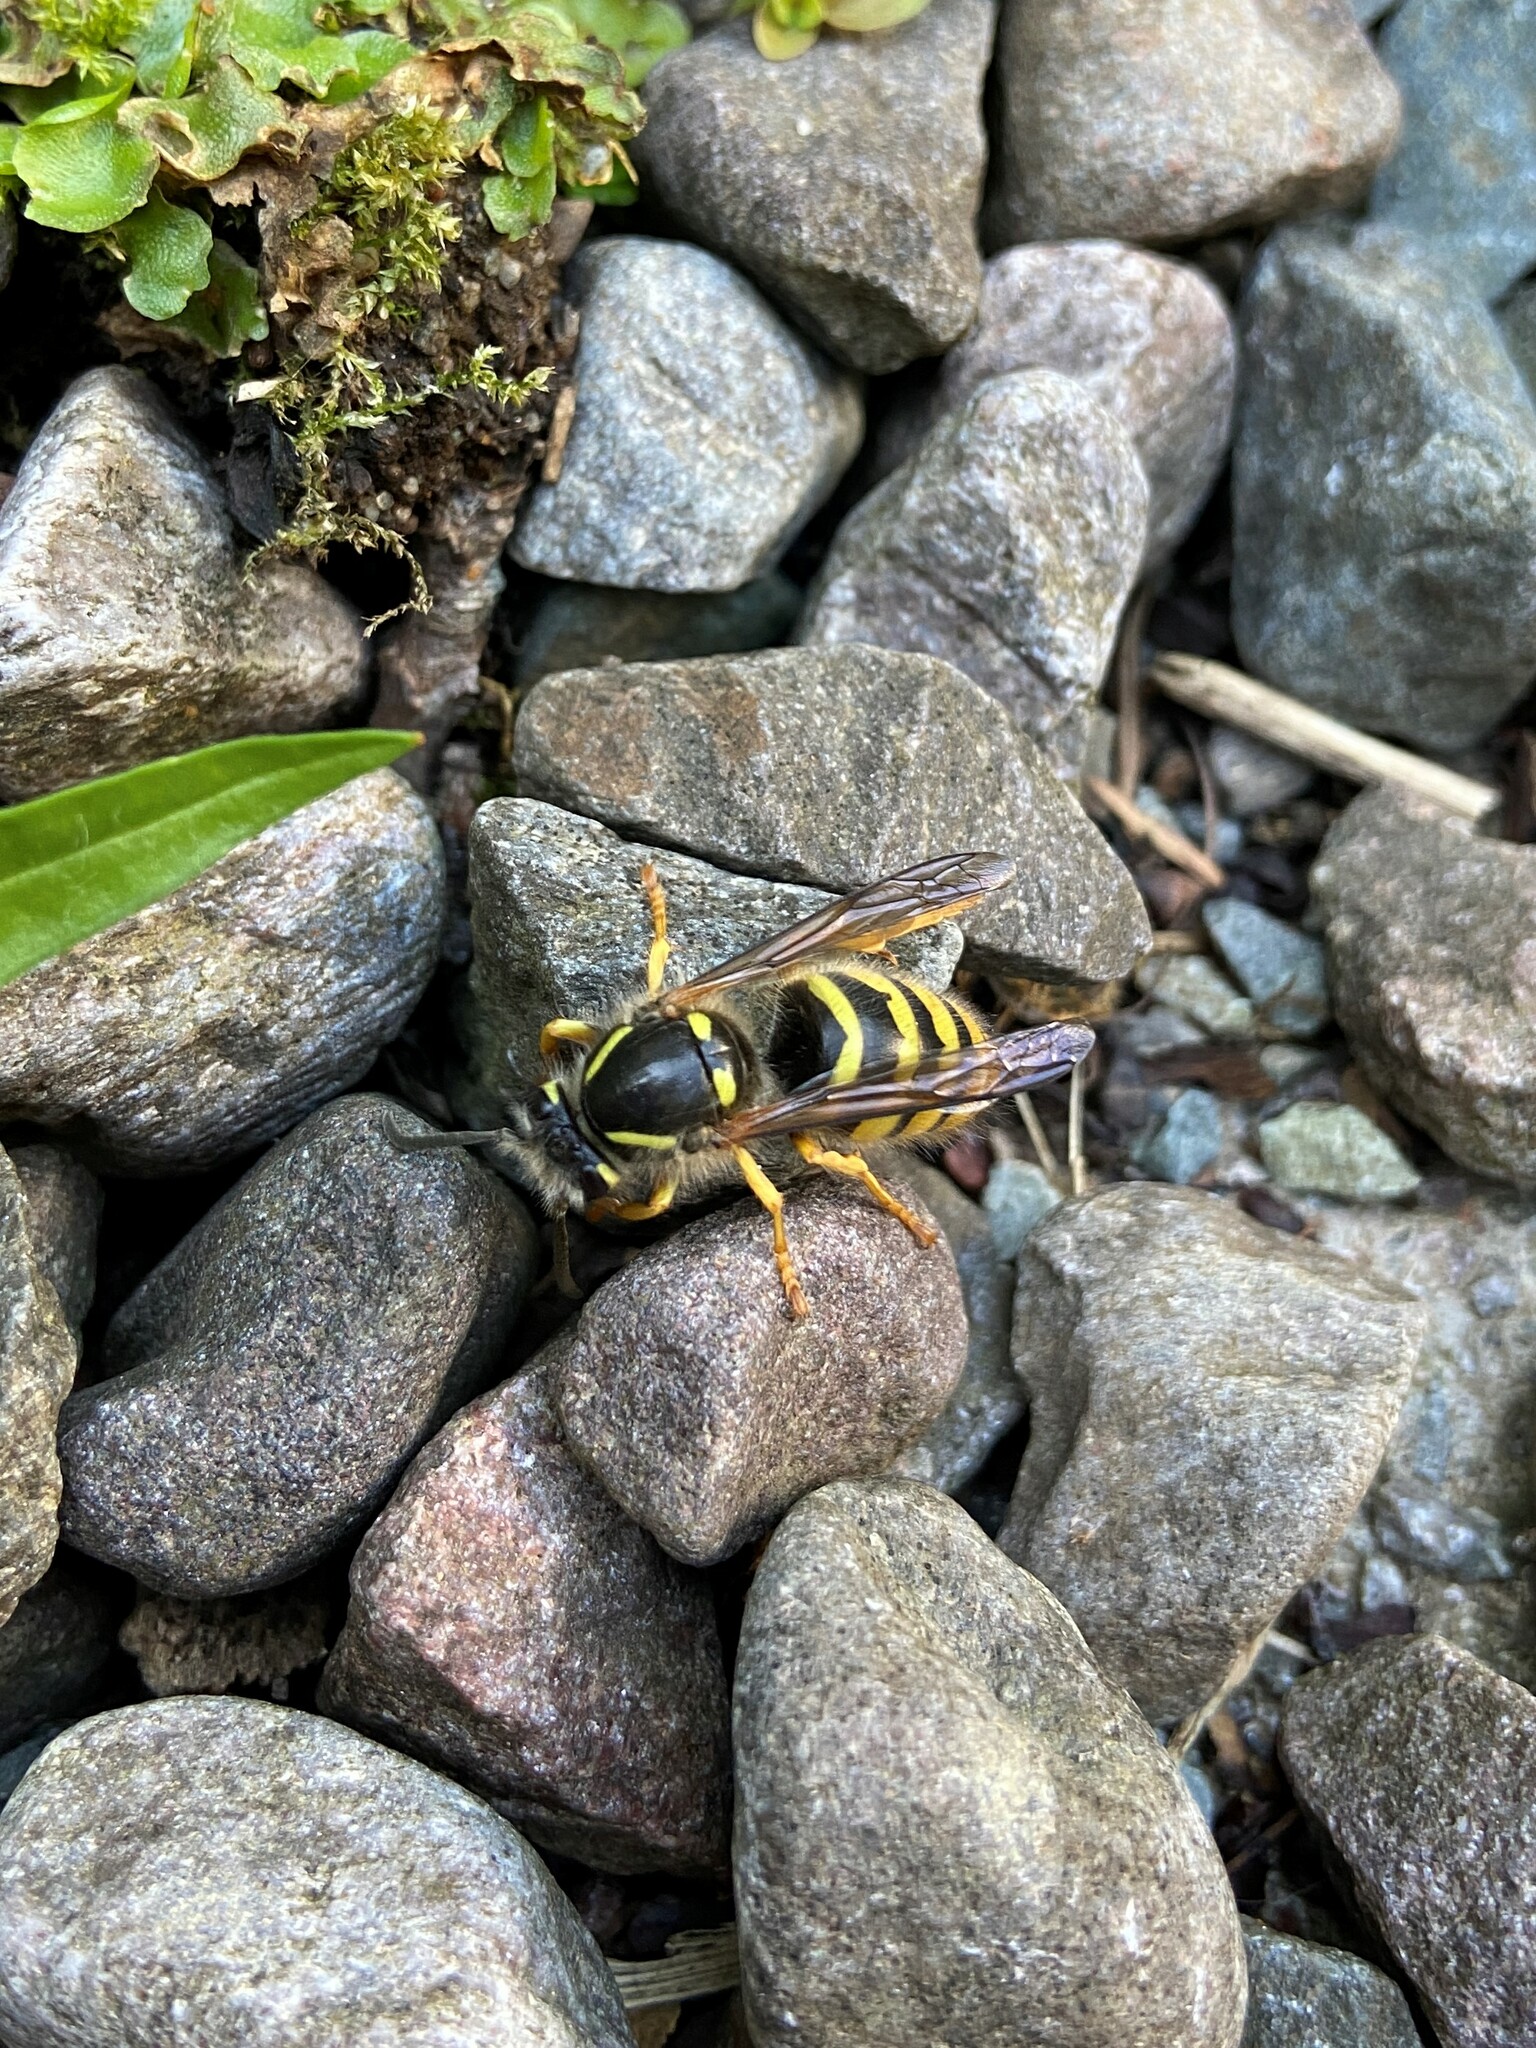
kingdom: Animalia
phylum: Arthropoda
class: Insecta
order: Hymenoptera
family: Vespidae
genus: Dolichovespula
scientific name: Dolichovespula sylvestris
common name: Tree wasp
